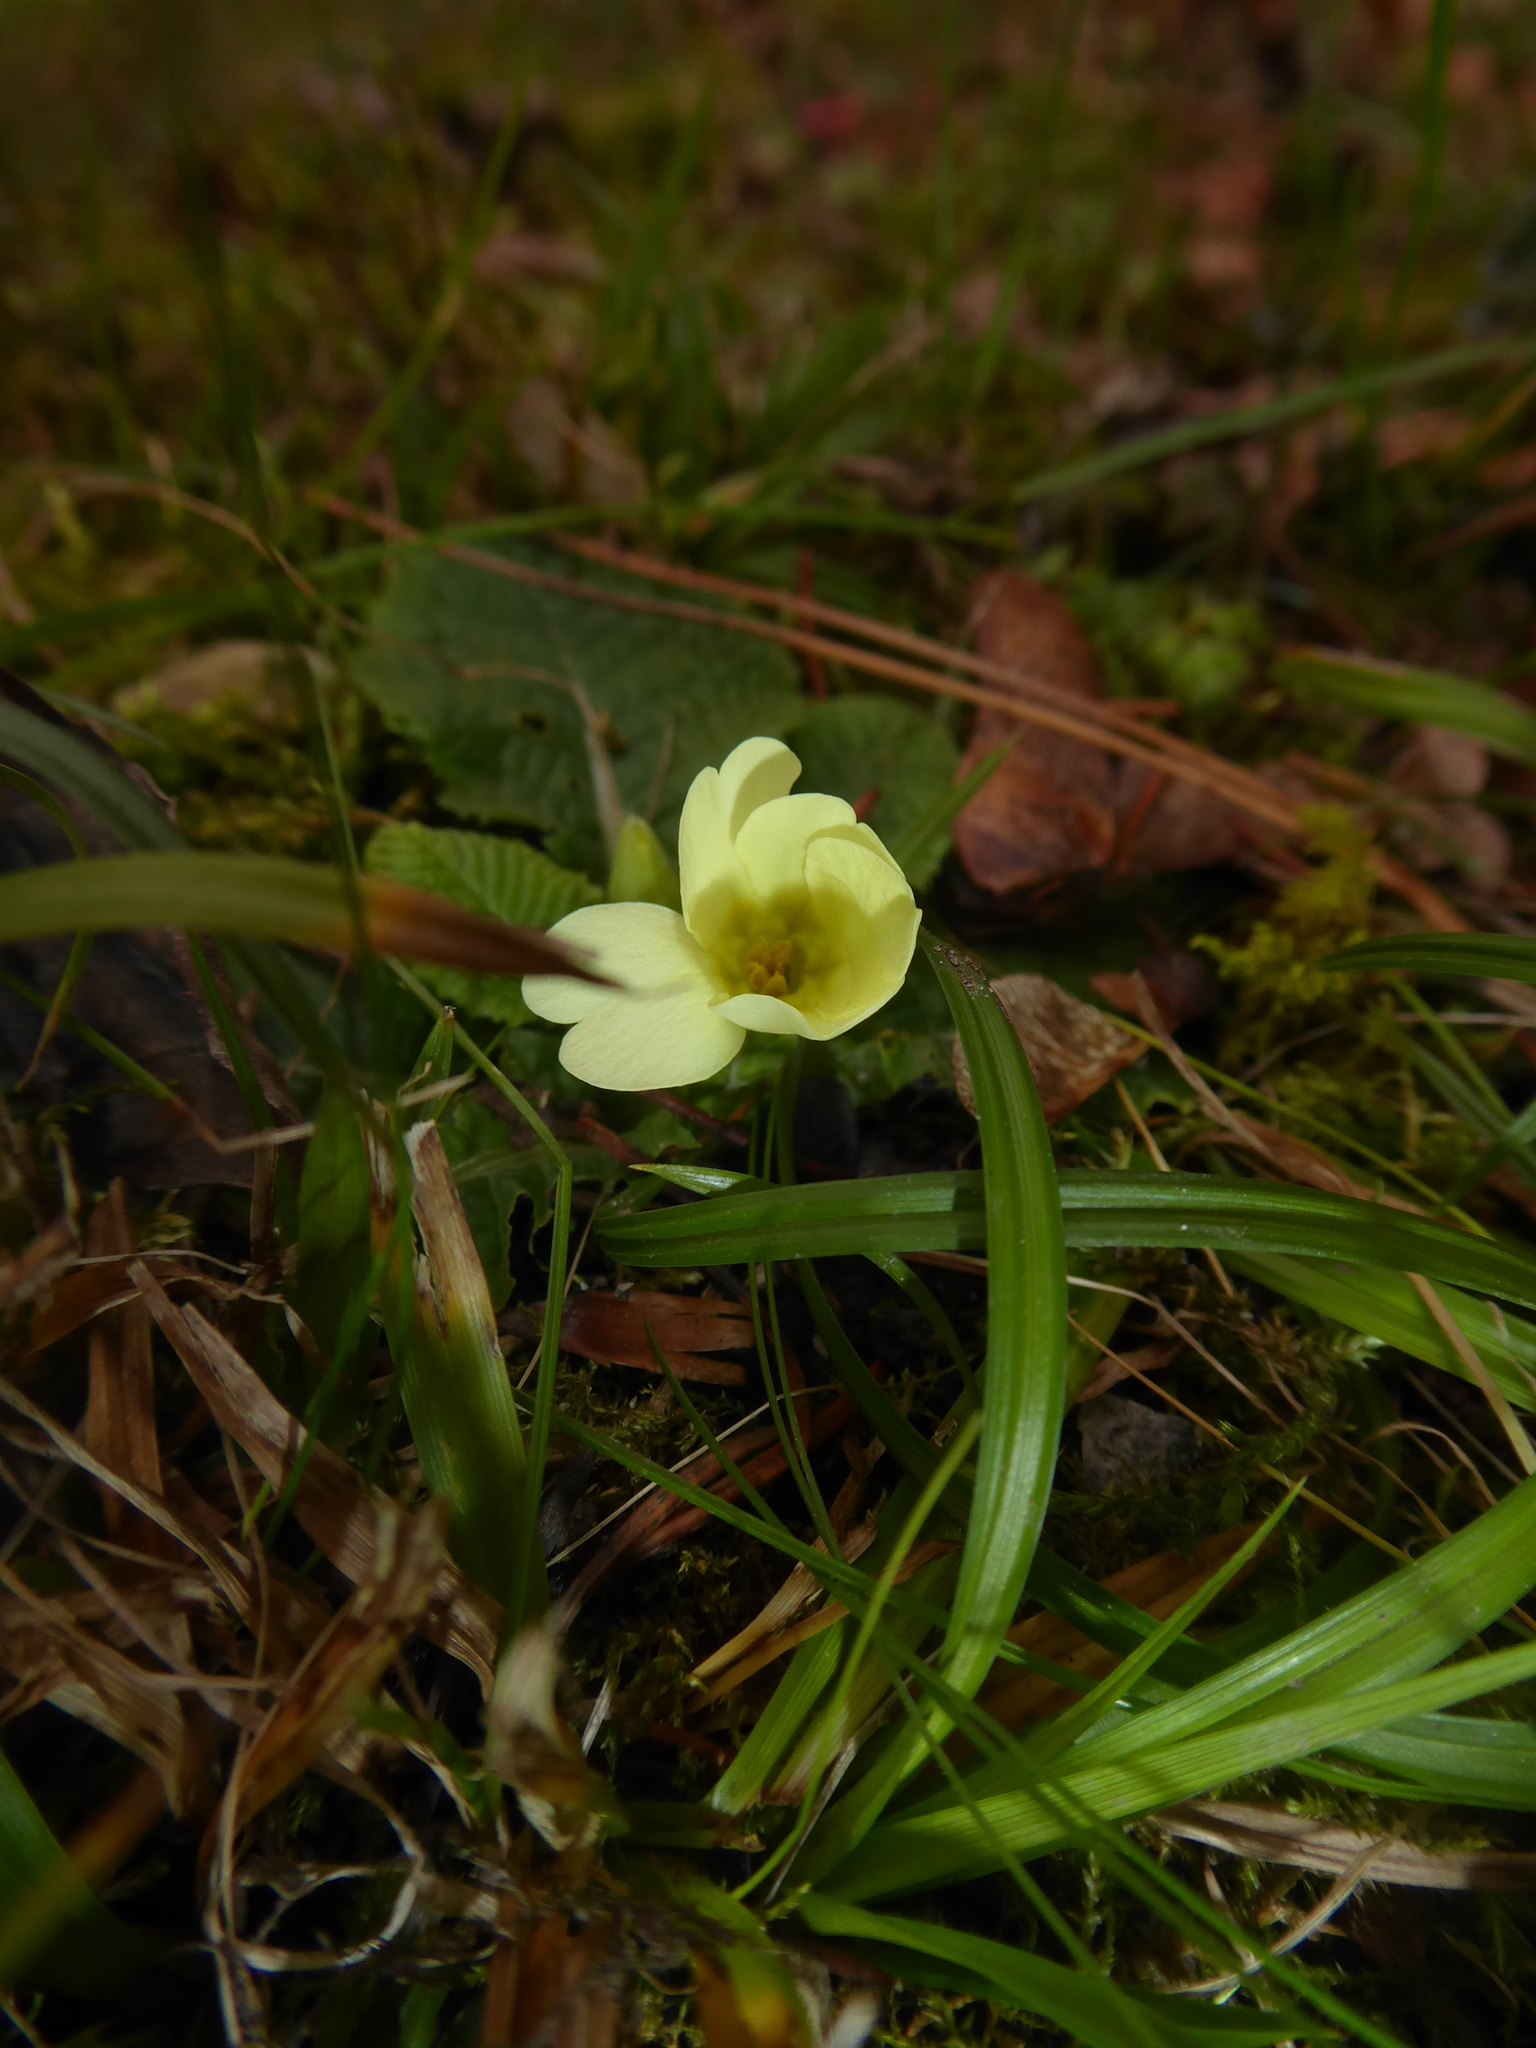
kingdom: Plantae
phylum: Tracheophyta
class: Magnoliopsida
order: Ericales
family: Primulaceae
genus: Primula
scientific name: Primula vulgaris
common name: Primrose
